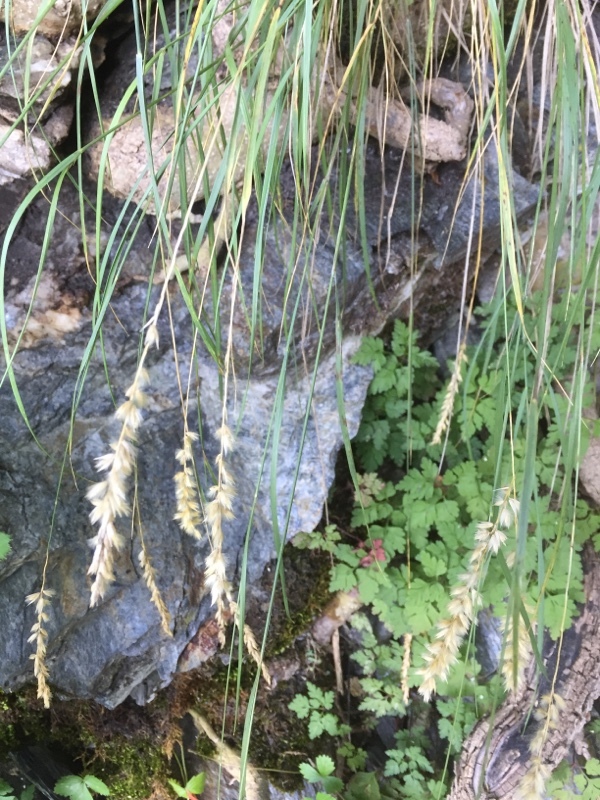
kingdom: Plantae
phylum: Tracheophyta
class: Liliopsida
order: Poales
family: Poaceae
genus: Melica
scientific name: Melica ciliata
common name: Hairy melicgrass
